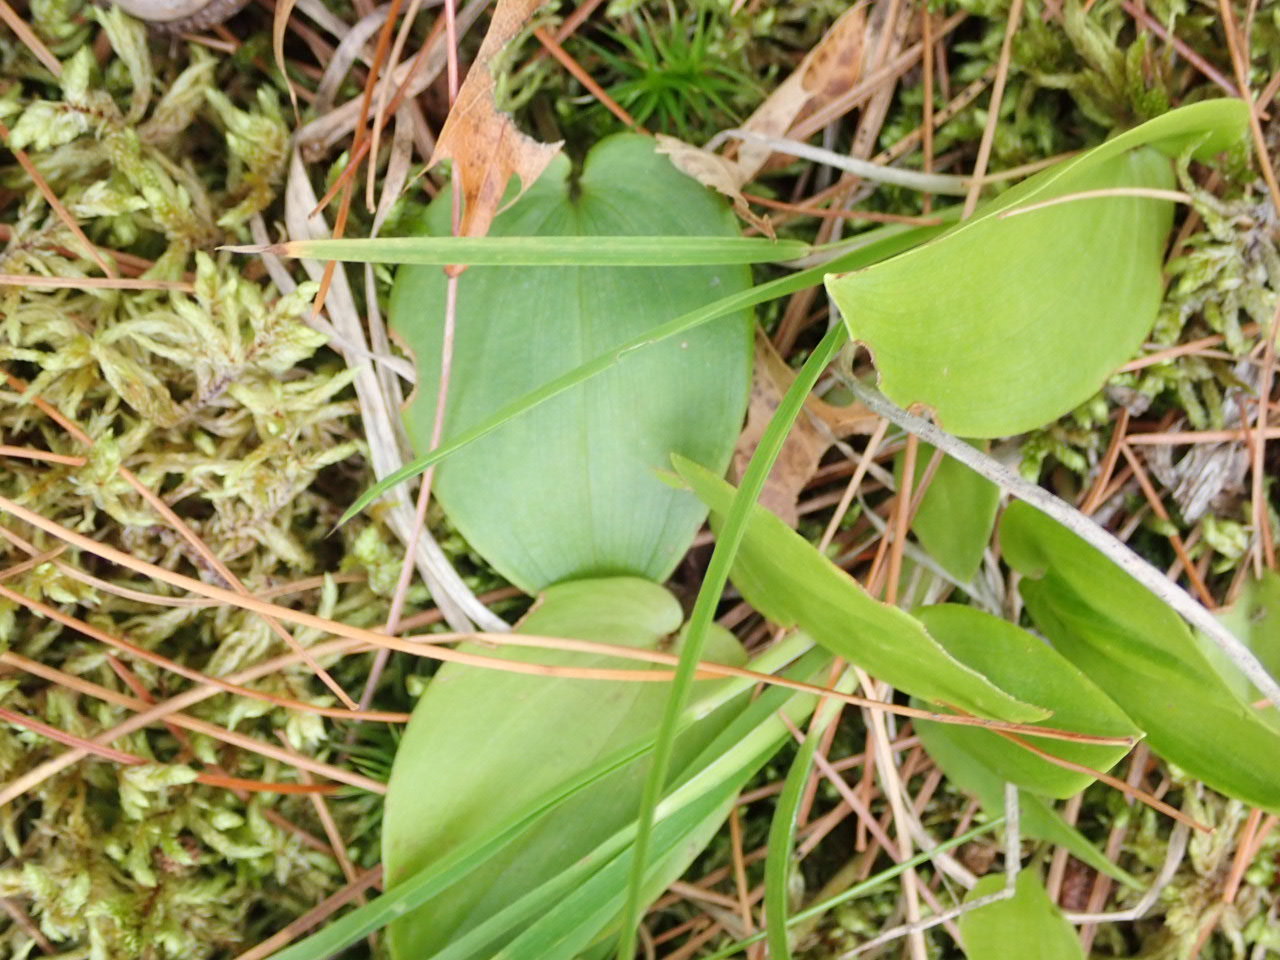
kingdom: Plantae
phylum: Tracheophyta
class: Liliopsida
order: Asparagales
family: Asparagaceae
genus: Maianthemum
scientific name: Maianthemum canadense
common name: False lily-of-the-valley
